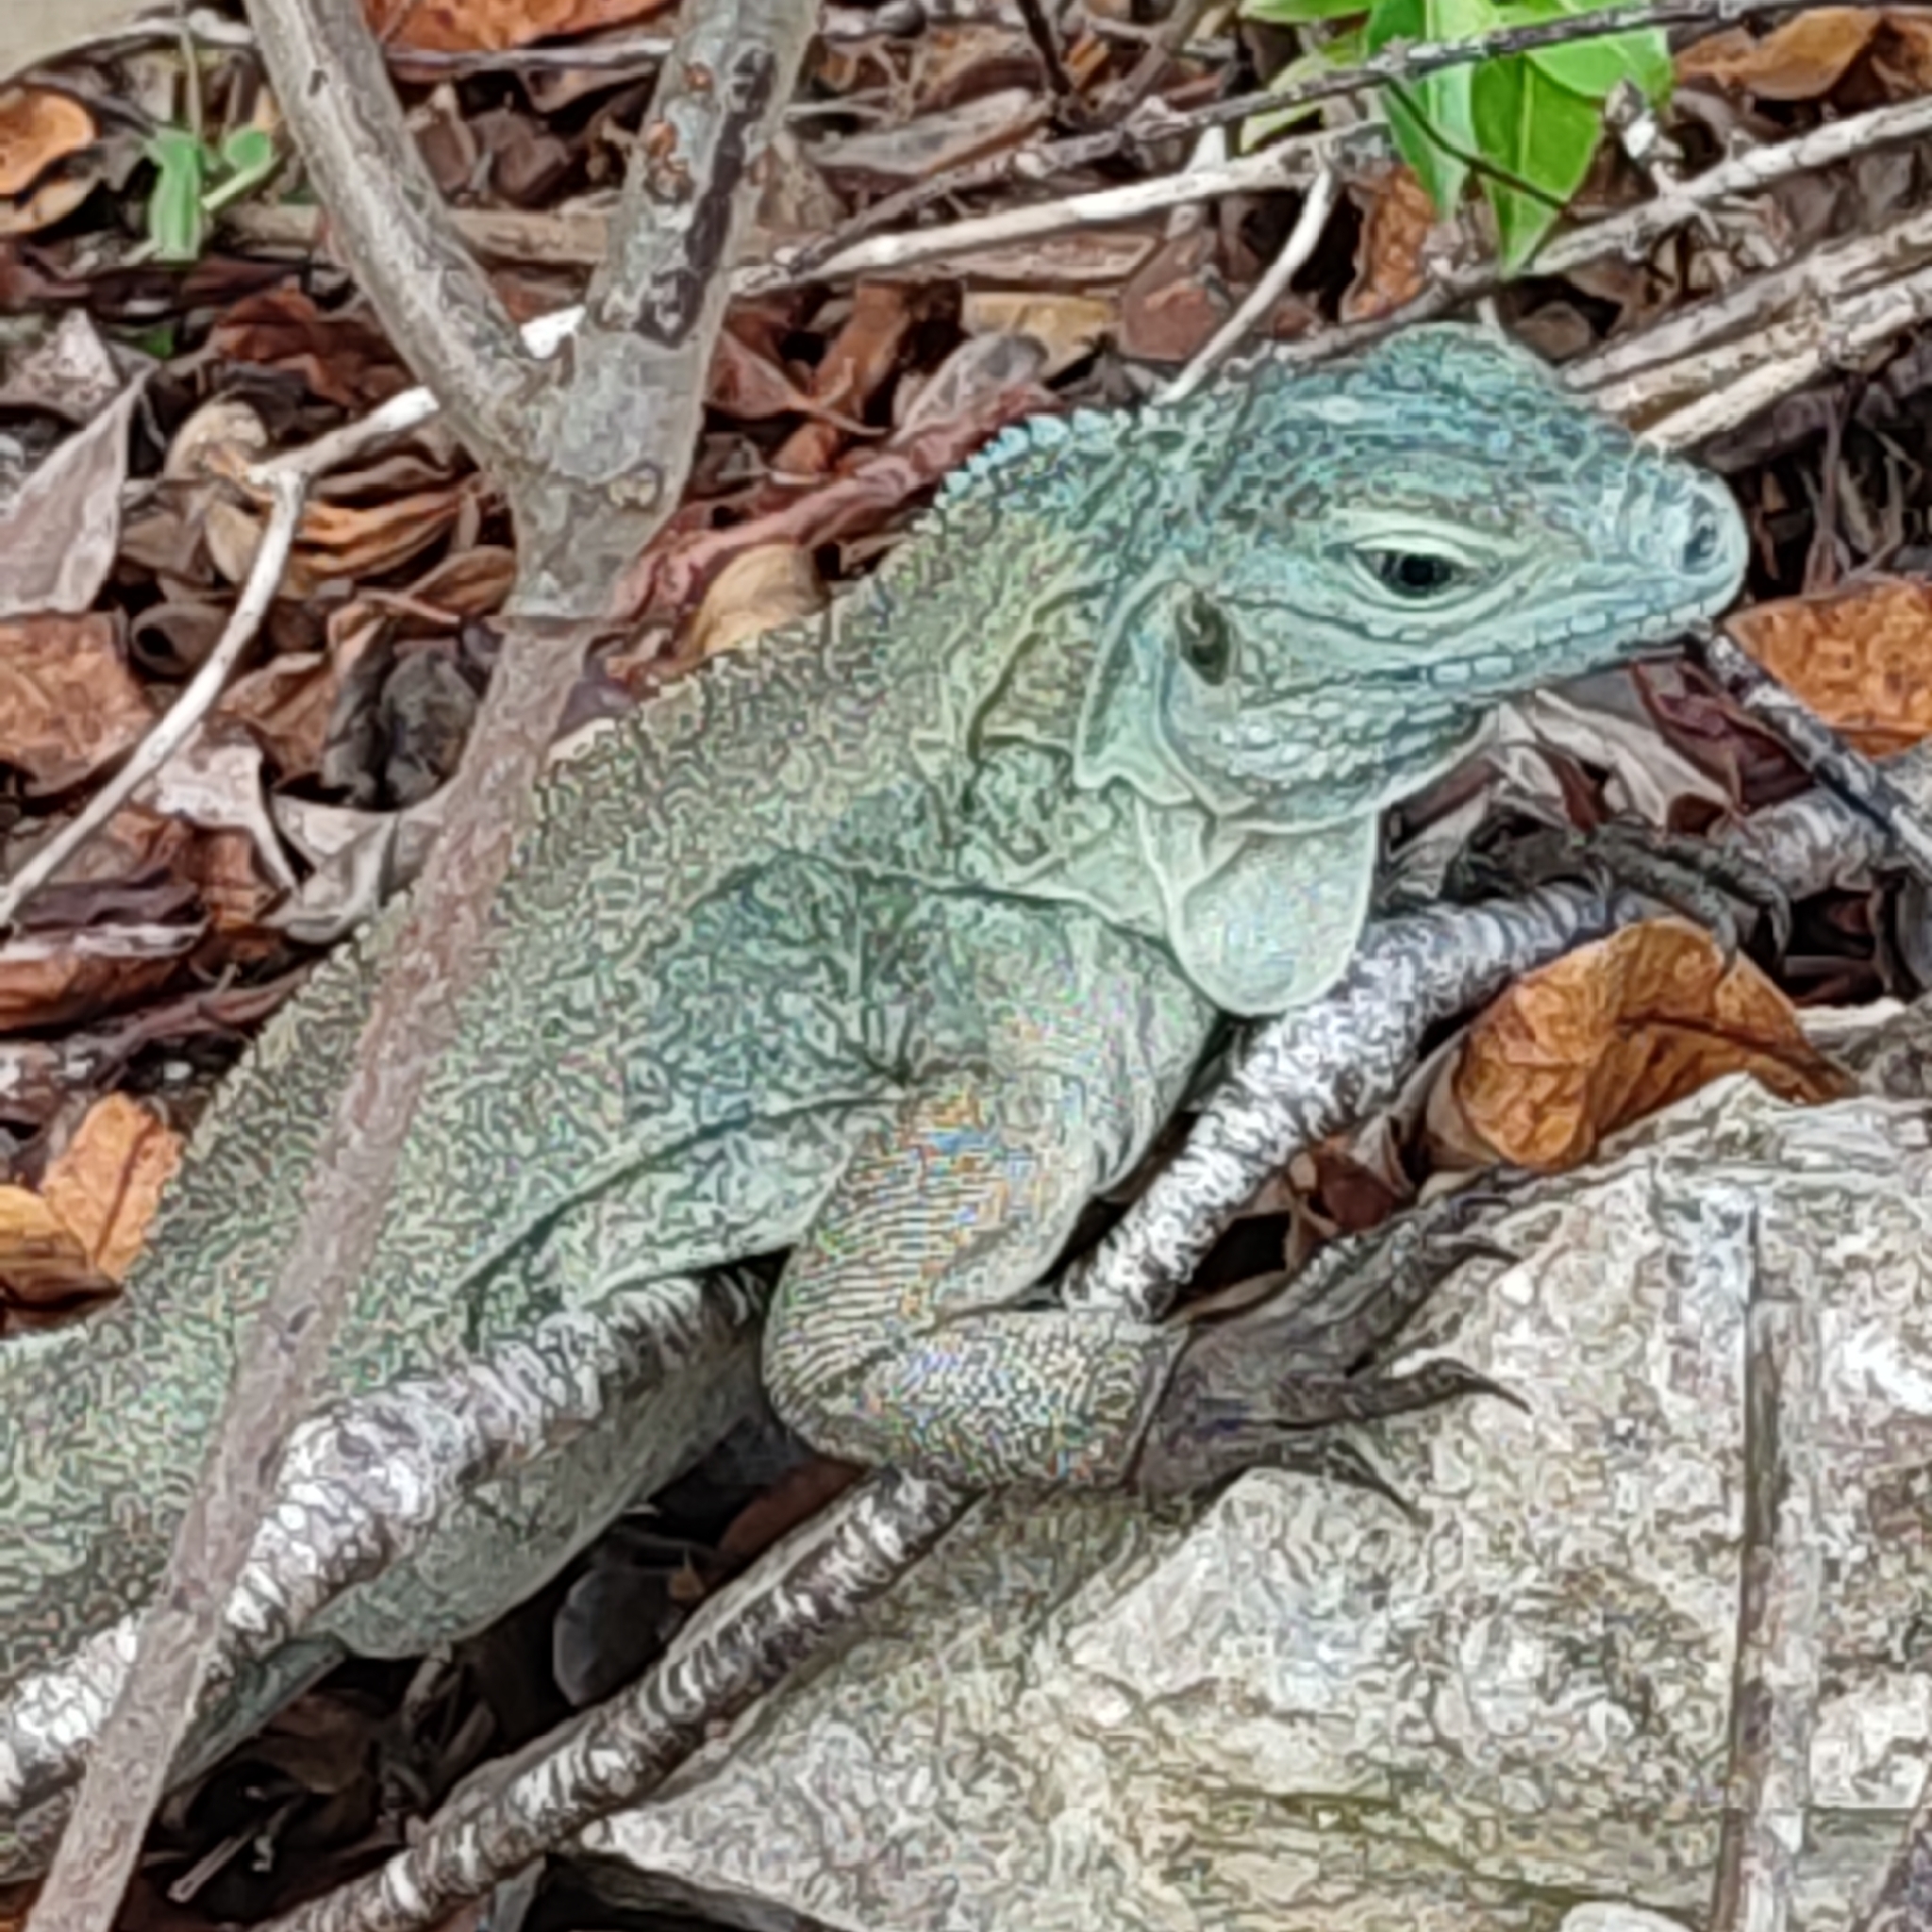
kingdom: Animalia
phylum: Chordata
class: Squamata
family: Iguanidae
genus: Cyclura
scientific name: Cyclura lewisi
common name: Grand cayman blue iguana
